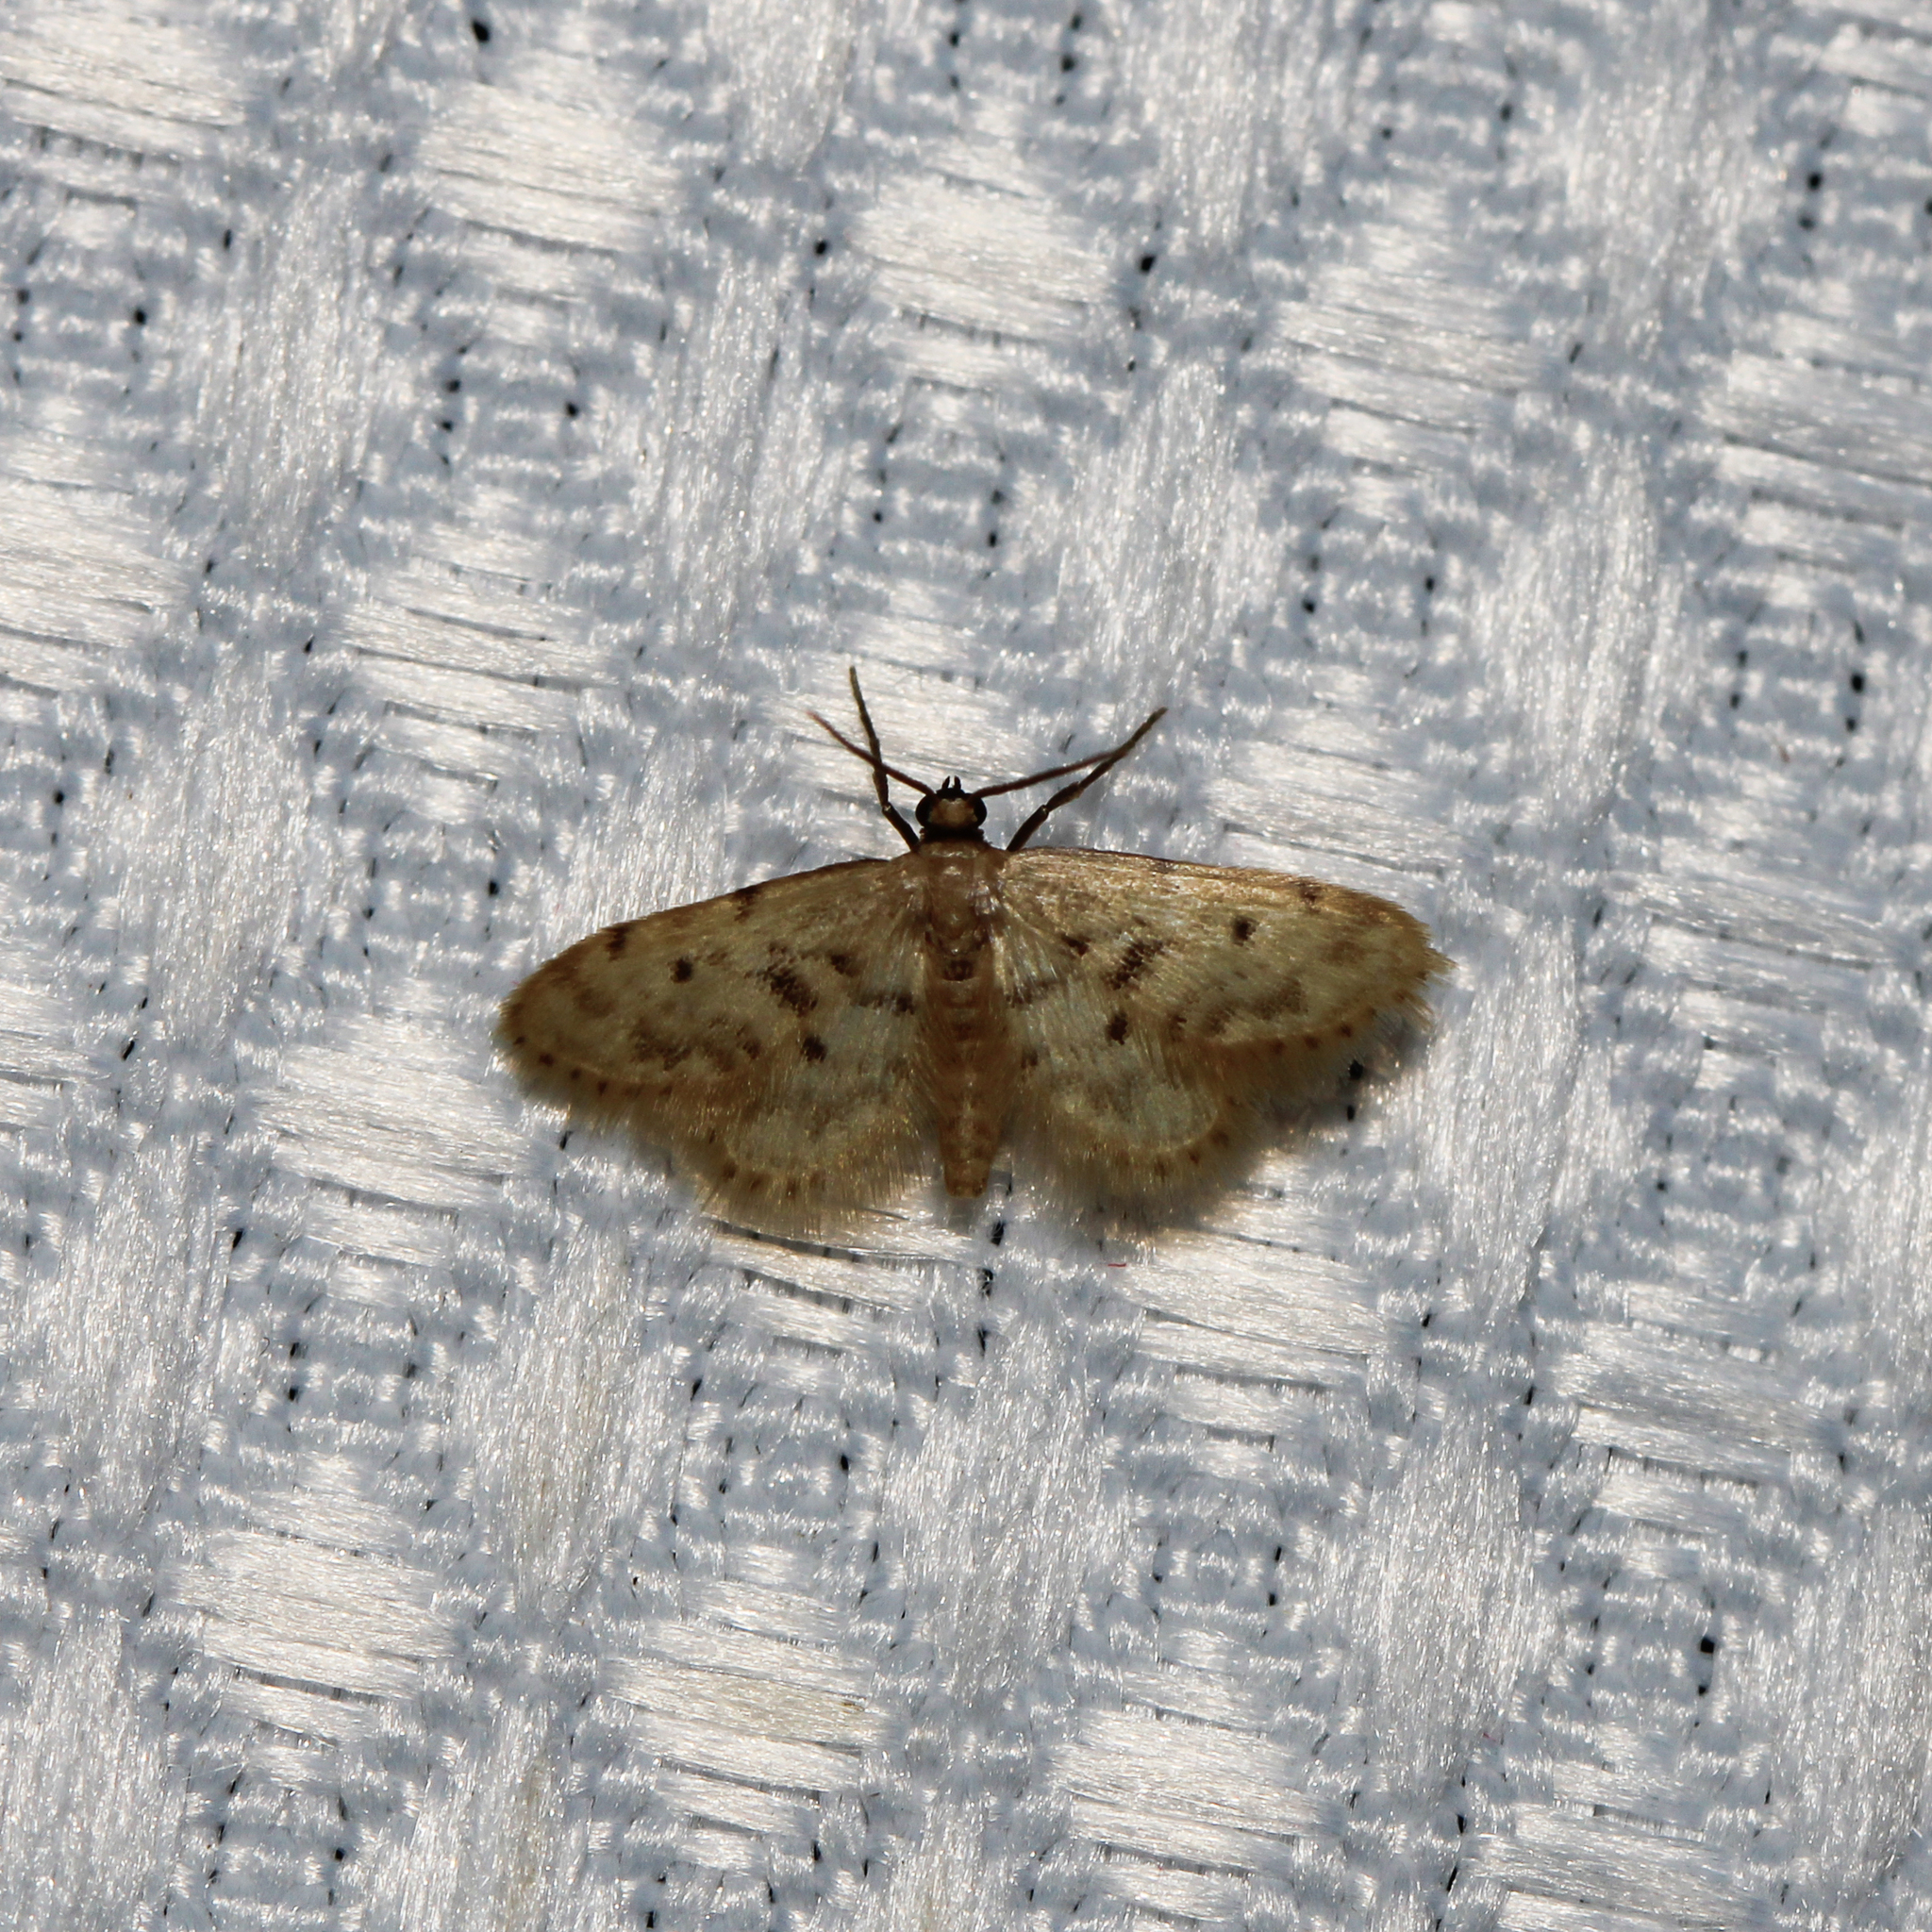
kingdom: Animalia
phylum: Arthropoda
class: Insecta
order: Lepidoptera
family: Geometridae
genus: Idaea
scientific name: Idaea bonifata
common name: Fortunate wave
